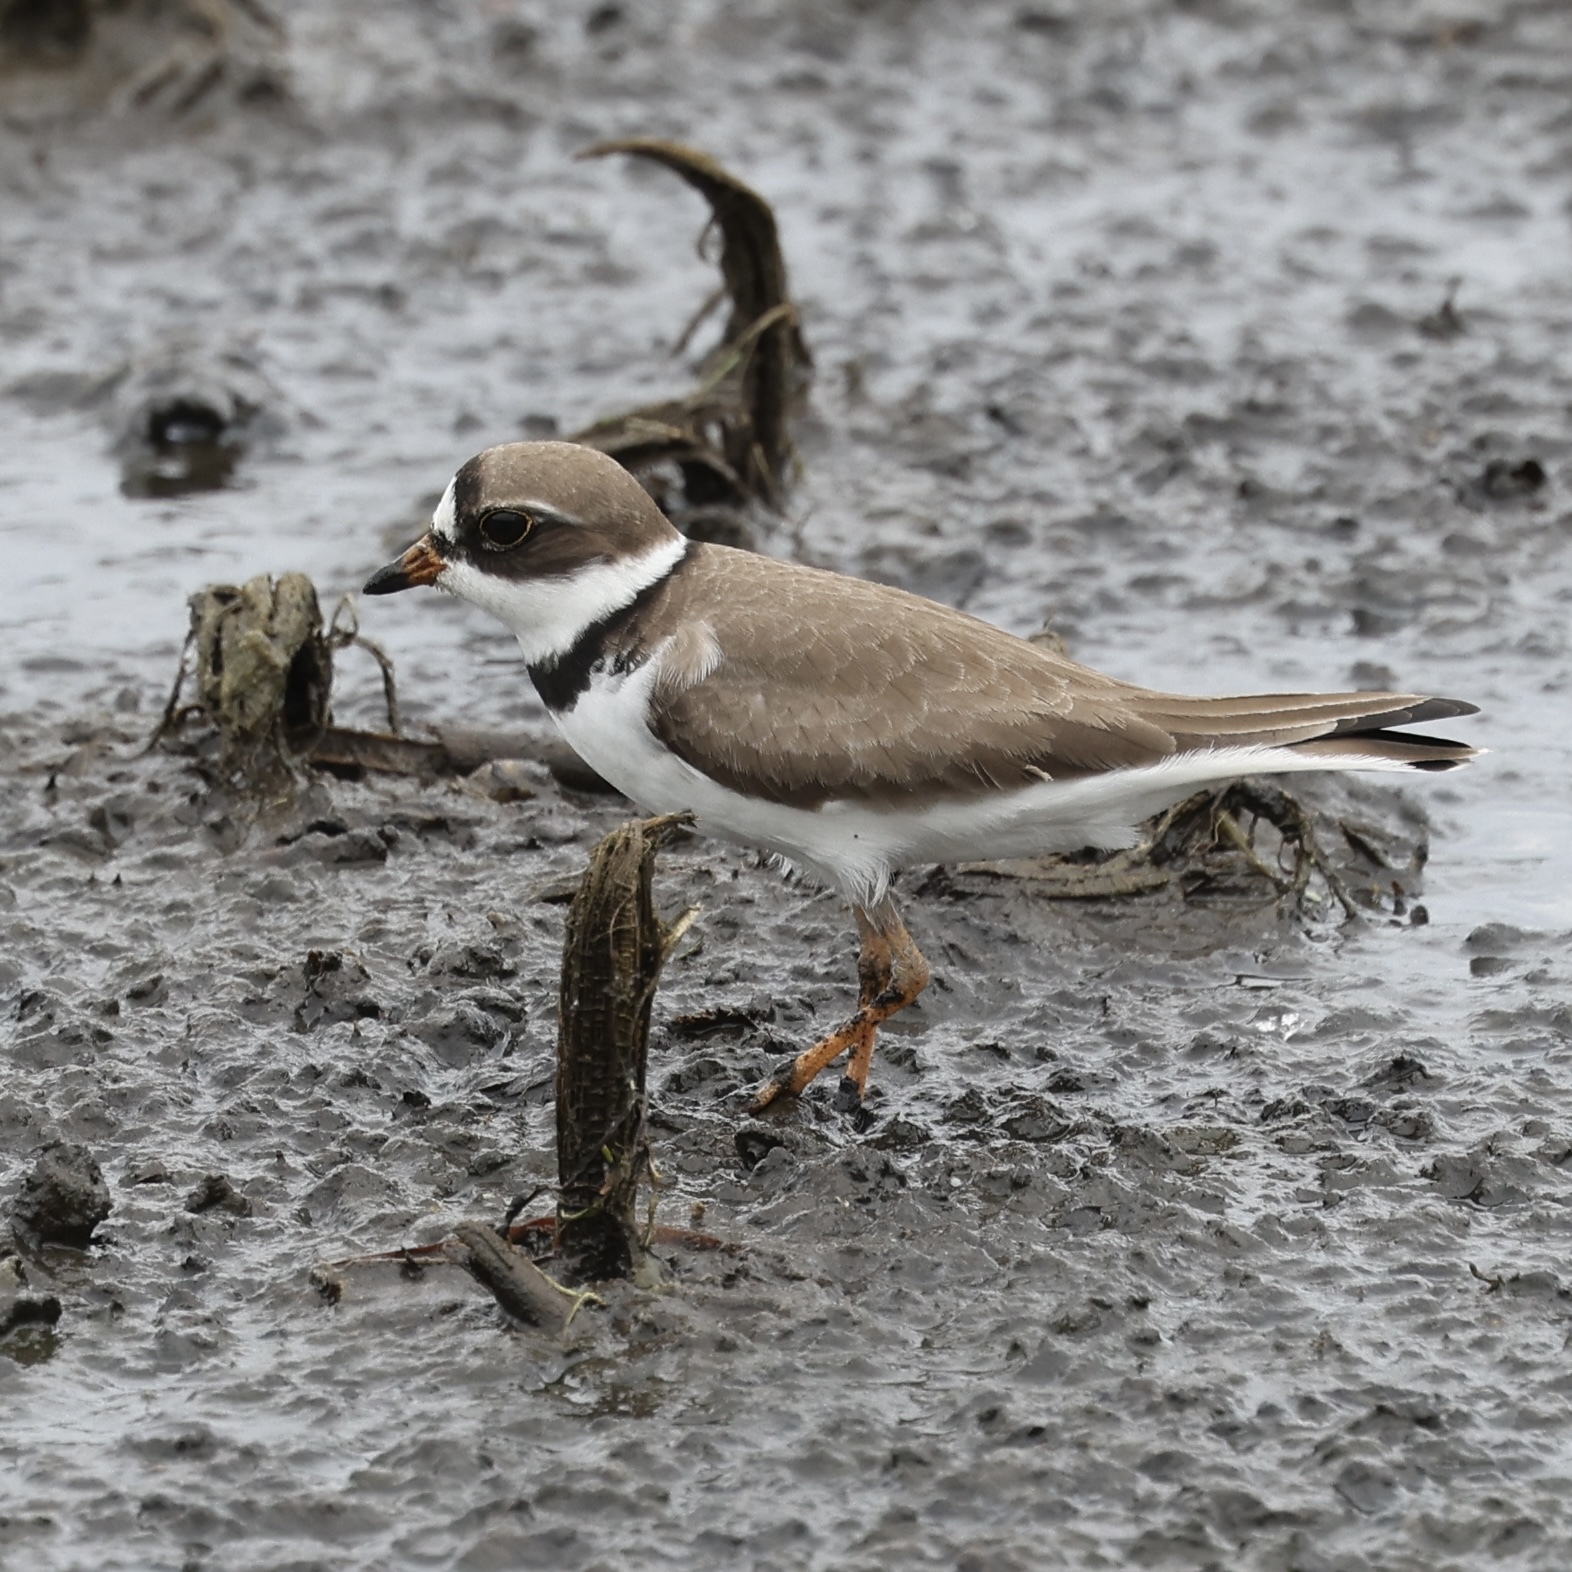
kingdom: Animalia
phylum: Chordata
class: Aves
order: Charadriiformes
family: Charadriidae
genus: Charadrius
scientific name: Charadrius semipalmatus
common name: Semipalmated plover
